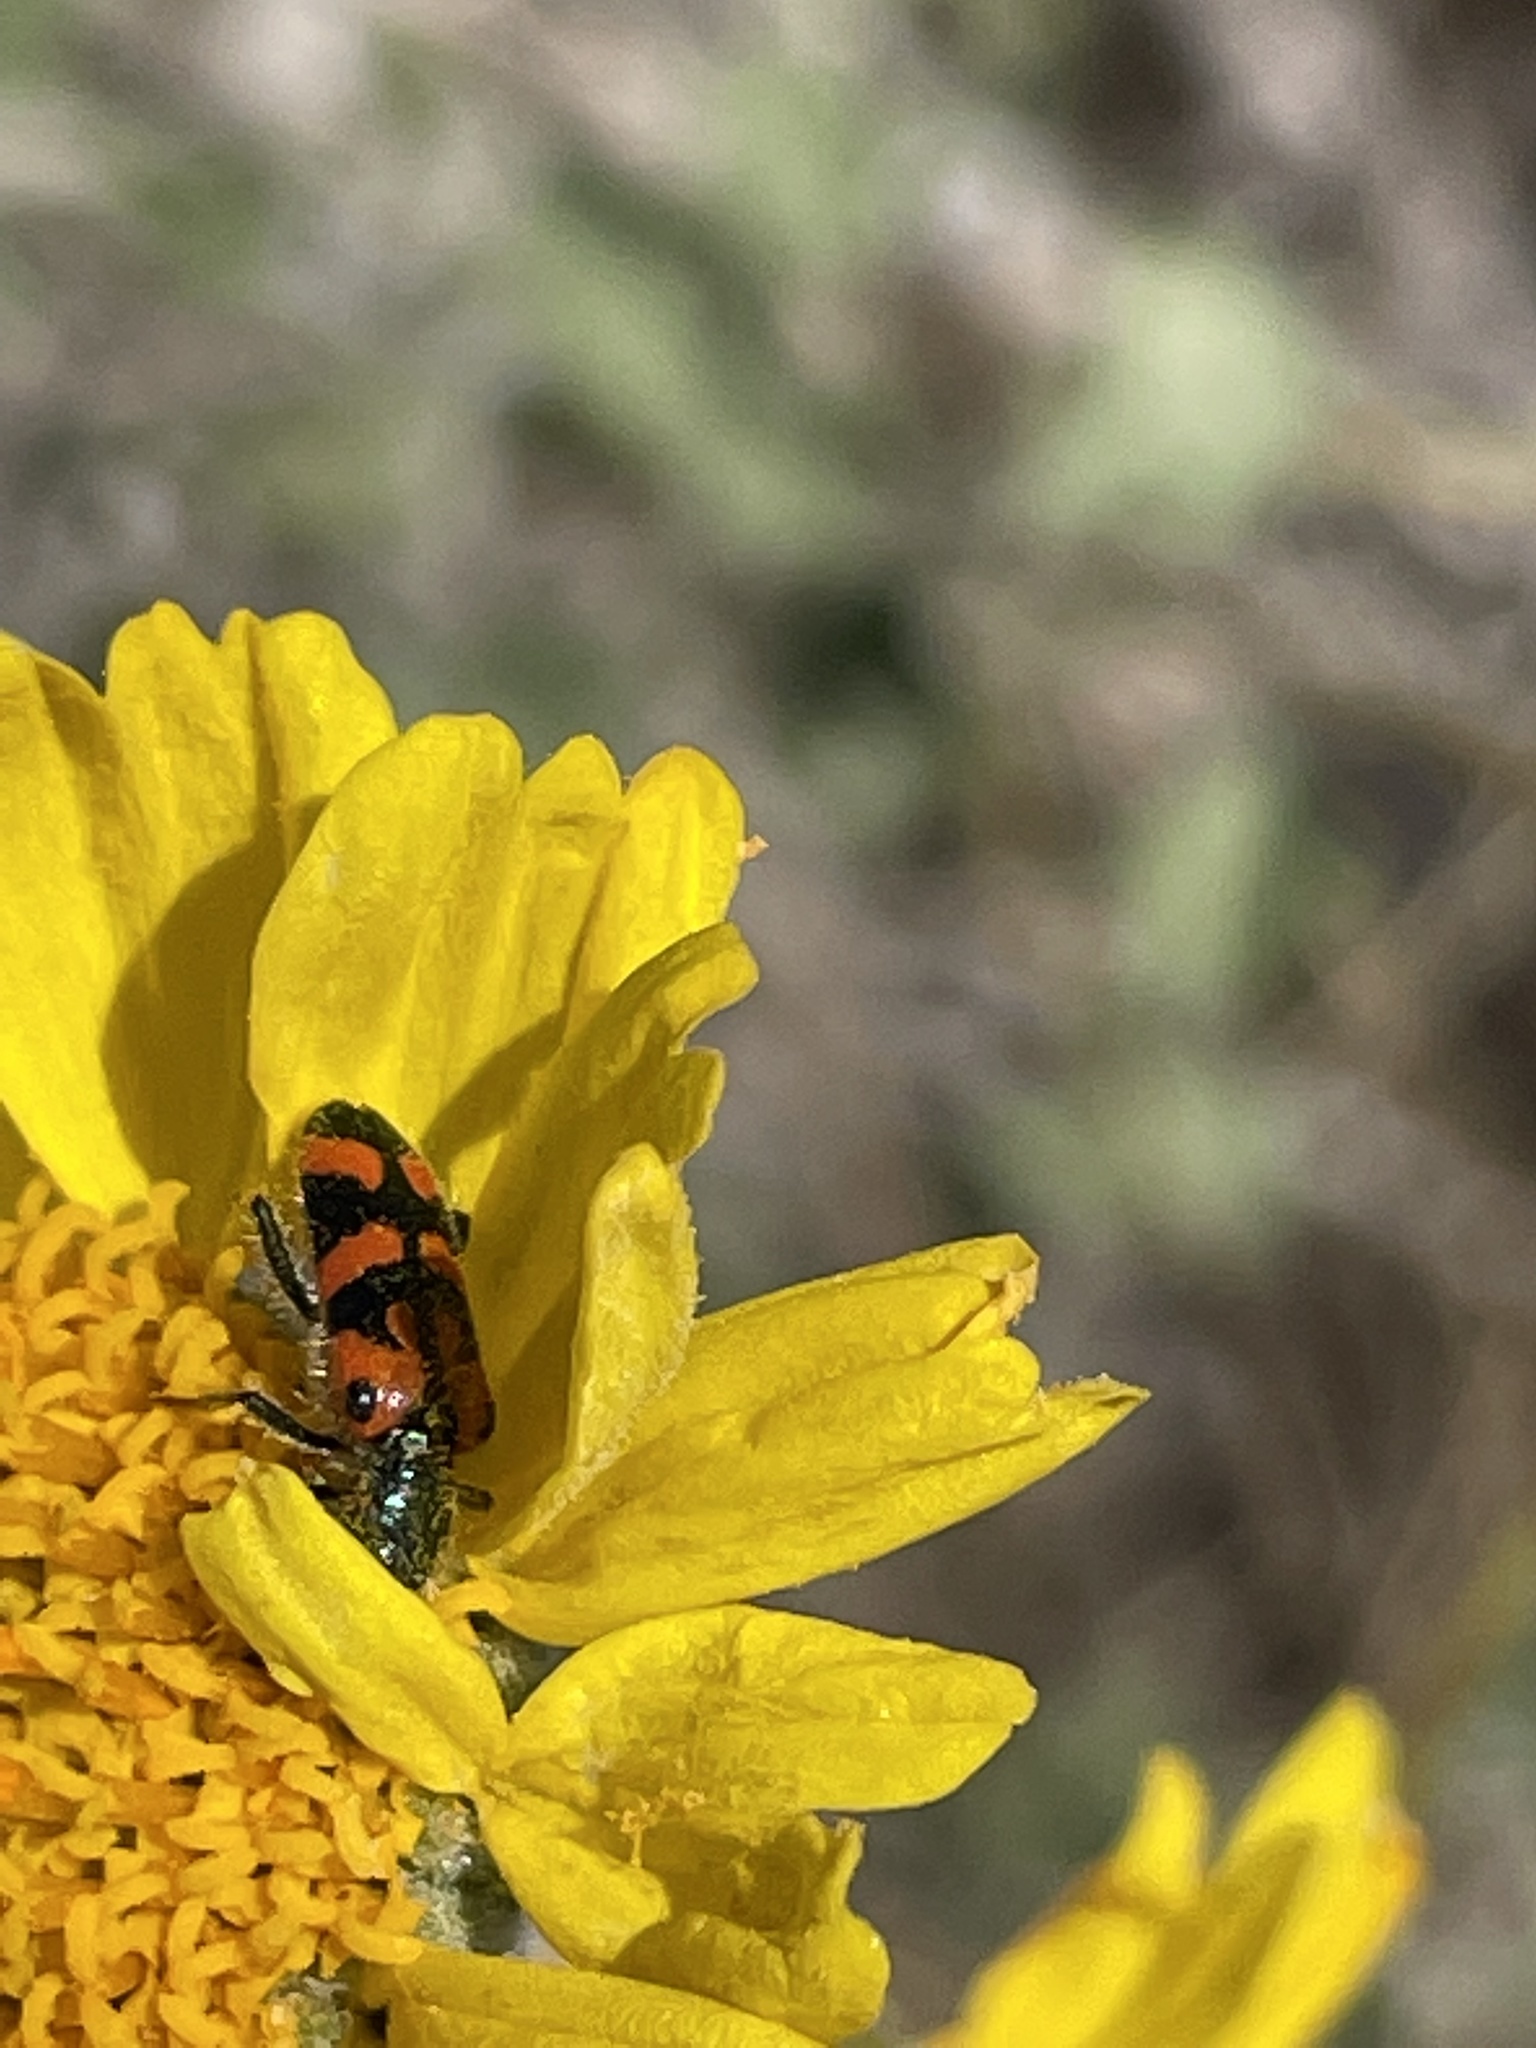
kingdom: Animalia
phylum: Arthropoda
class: Insecta
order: Coleoptera
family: Cleridae
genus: Trichodes
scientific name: Trichodes ornatus
